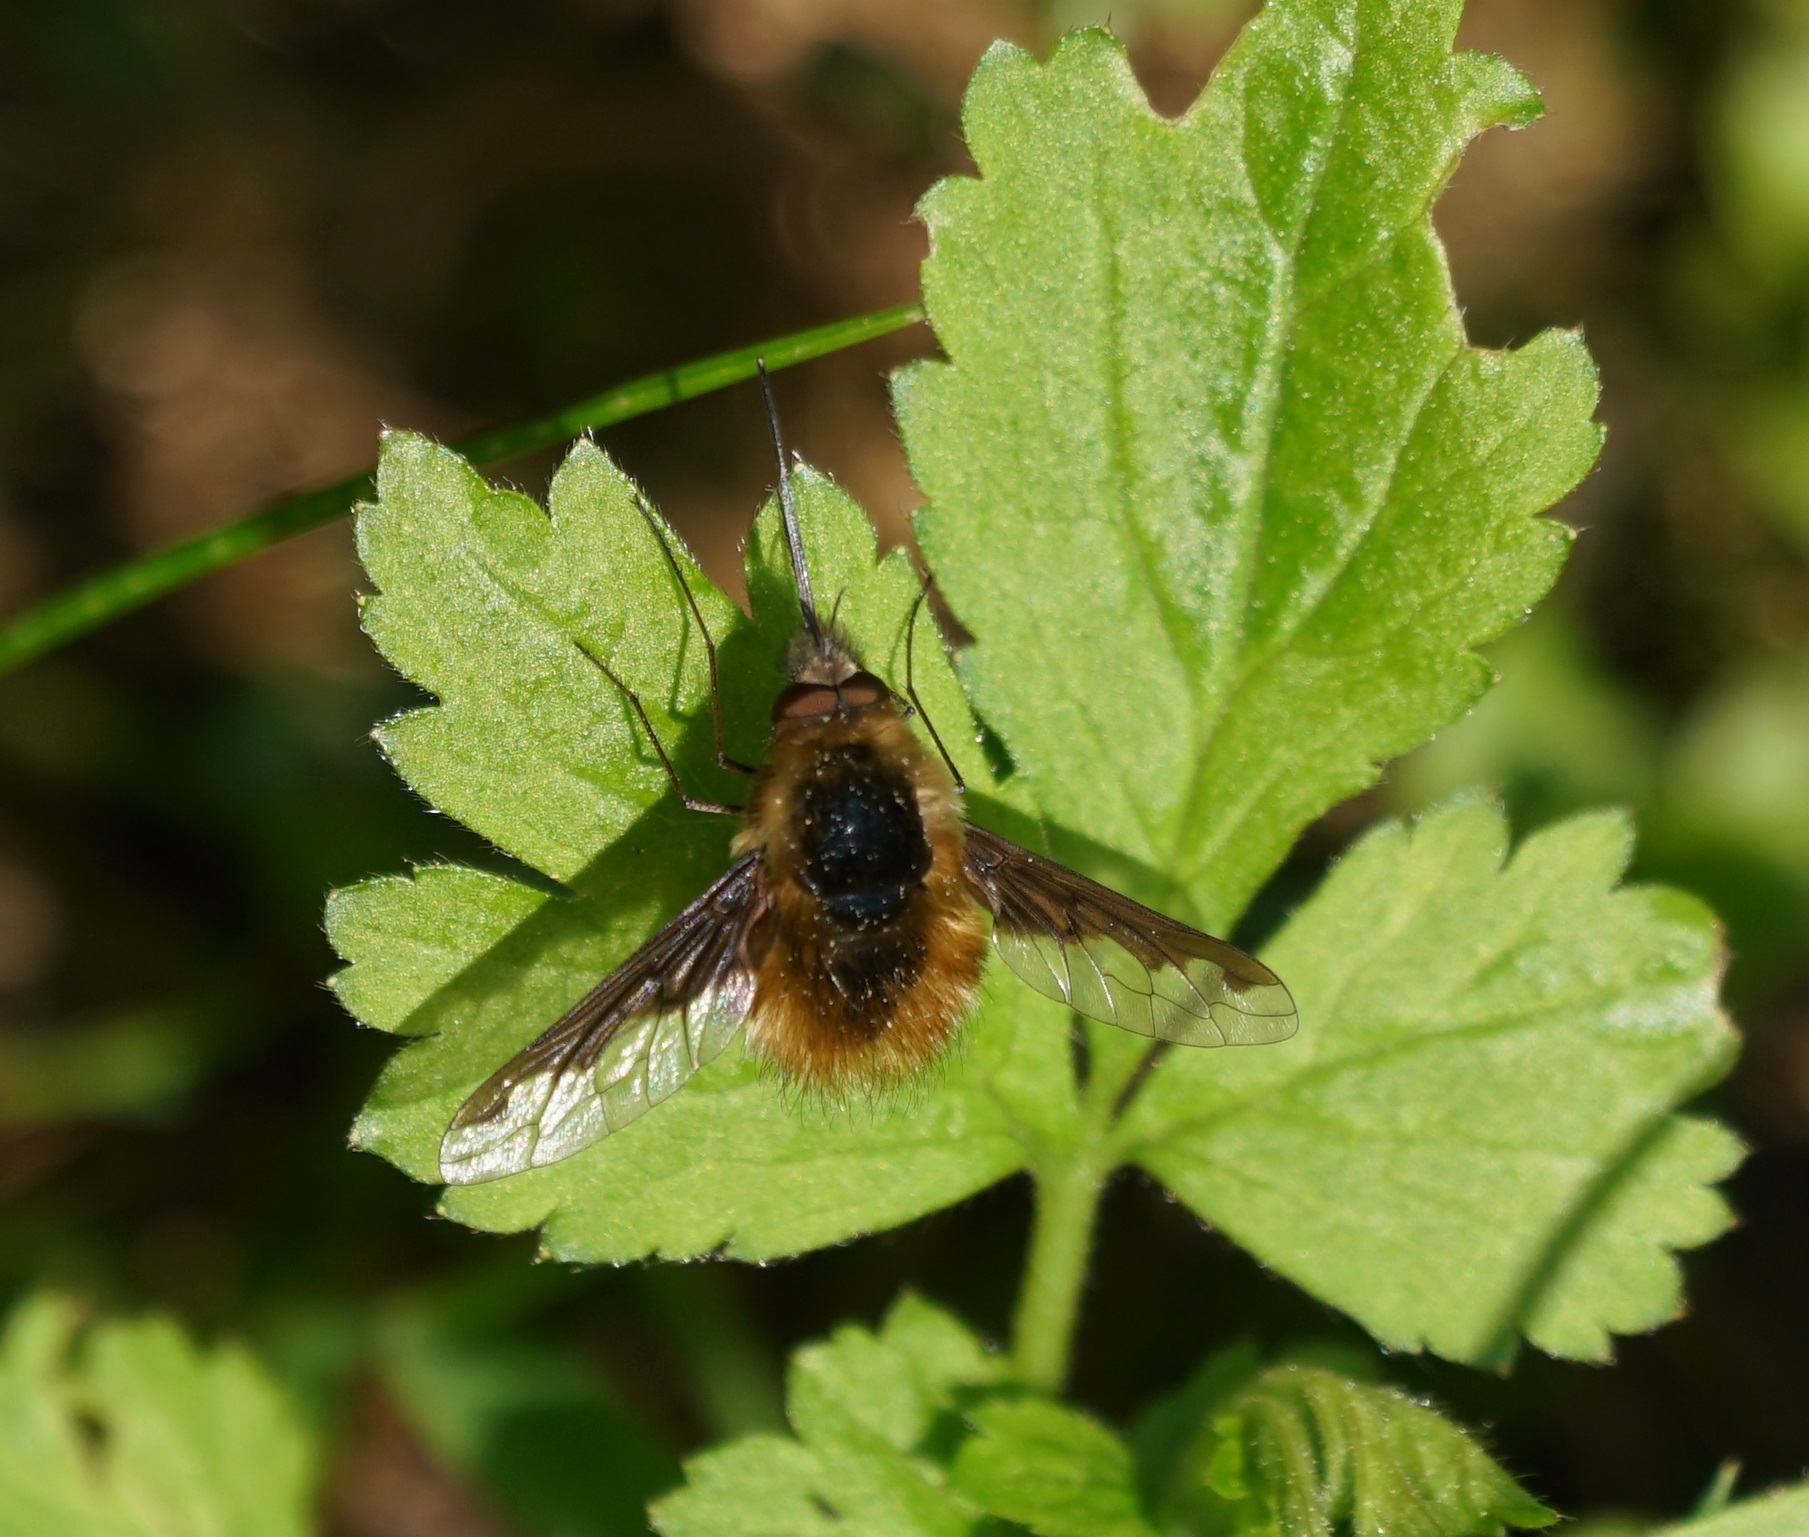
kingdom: Animalia
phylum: Arthropoda
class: Insecta
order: Diptera
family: Bombyliidae
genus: Bombylius
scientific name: Bombylius major
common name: Bee fly
